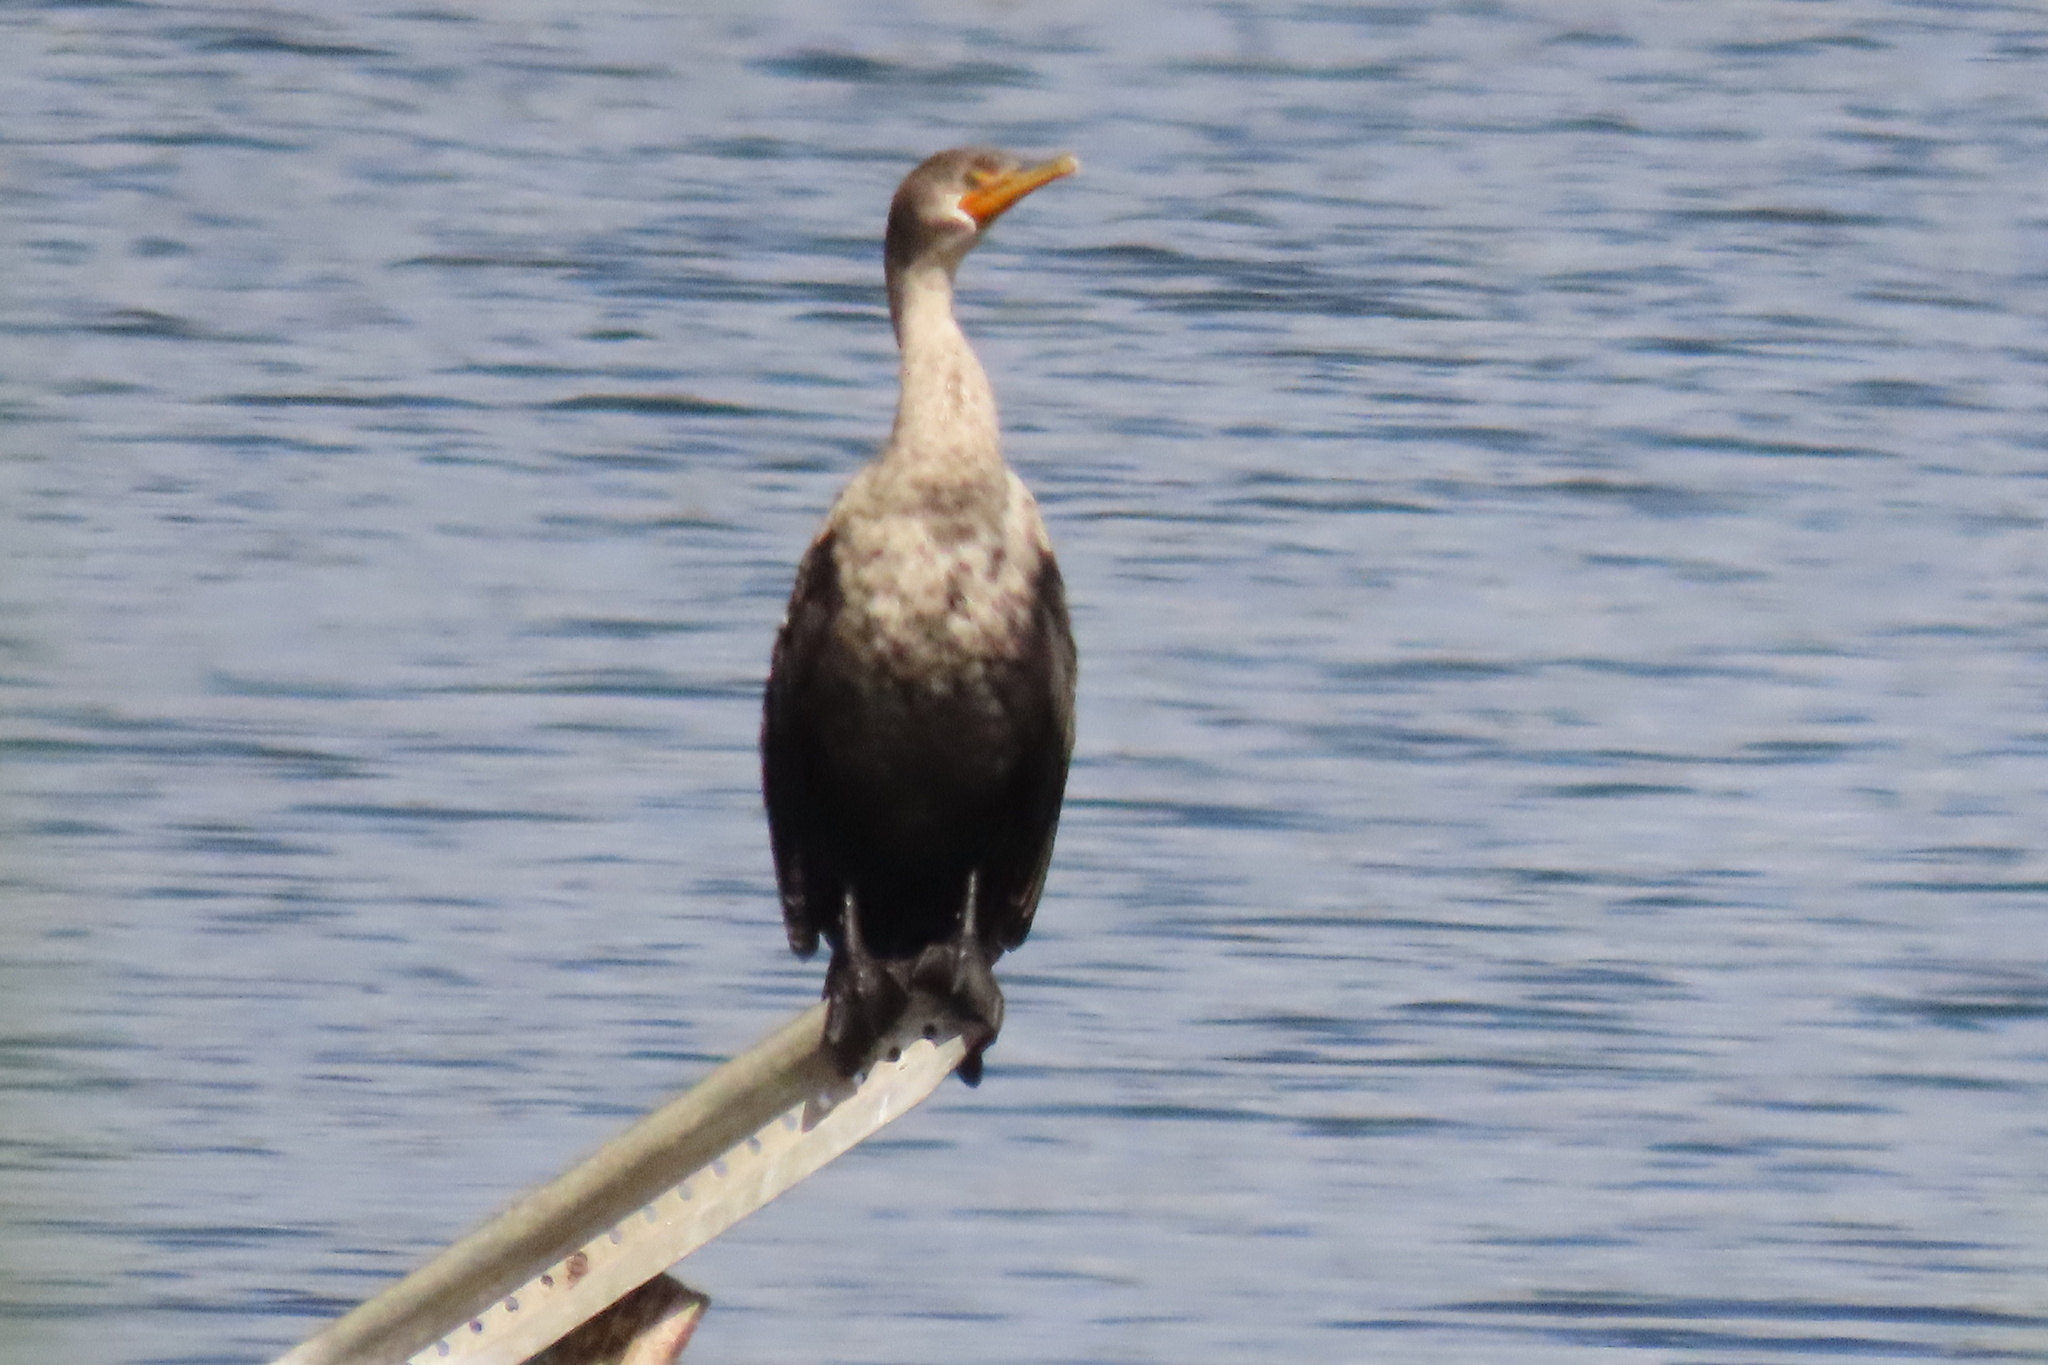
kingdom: Animalia
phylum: Chordata
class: Aves
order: Suliformes
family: Phalacrocoracidae
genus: Phalacrocorax
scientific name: Phalacrocorax auritus
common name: Double-crested cormorant
